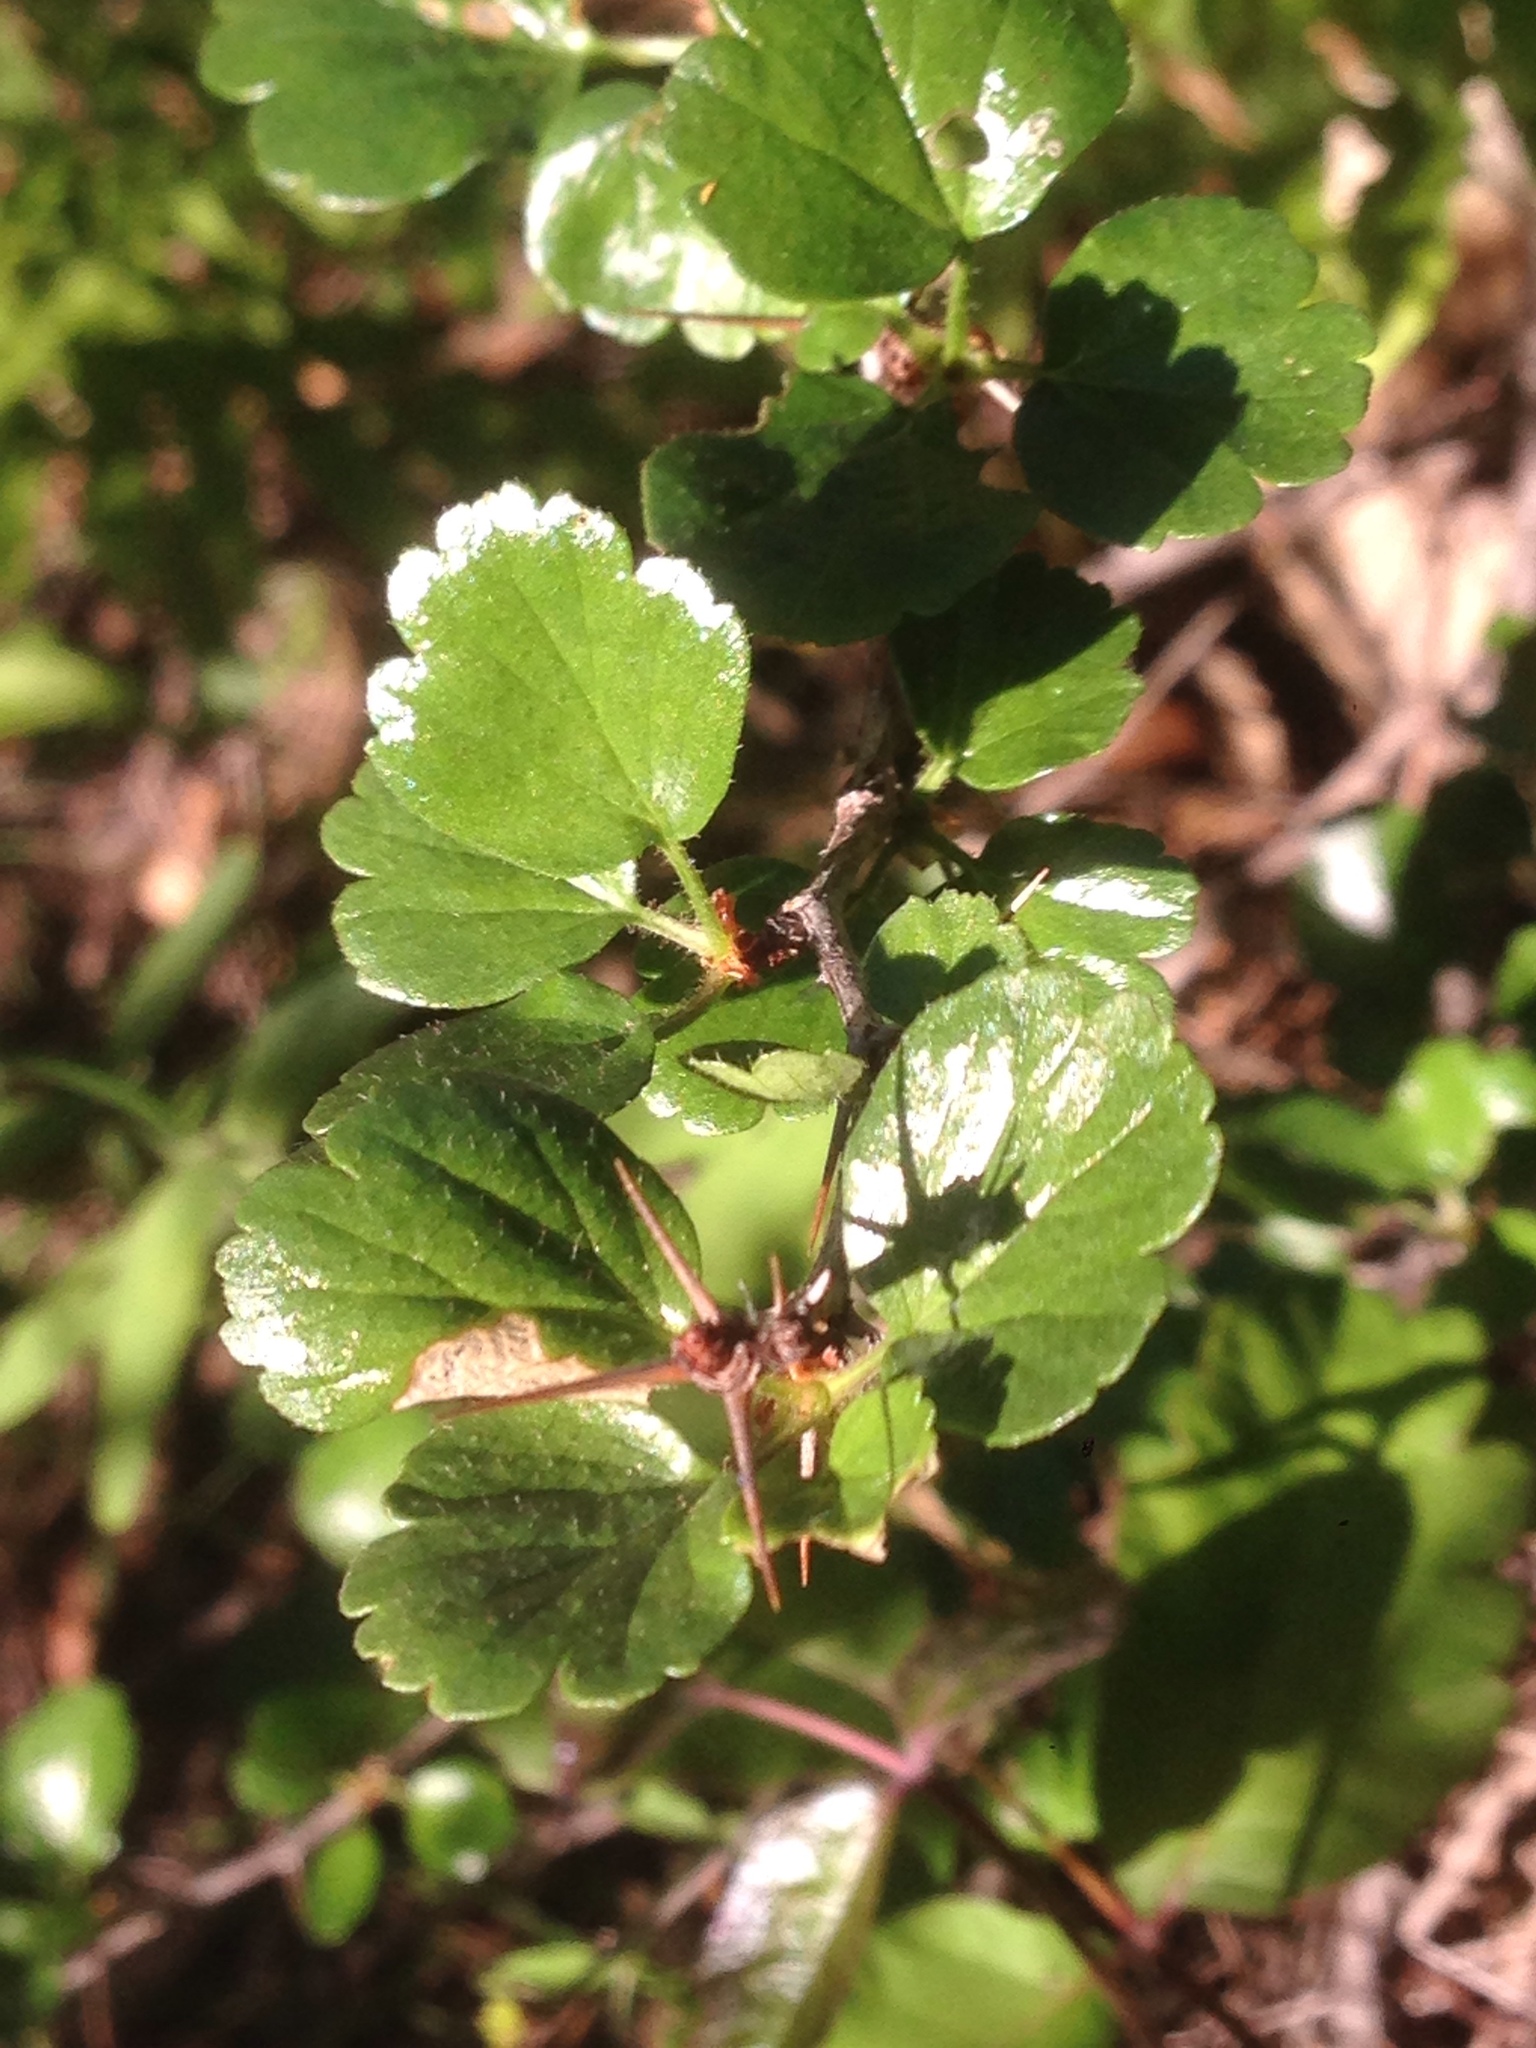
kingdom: Plantae
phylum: Tracheophyta
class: Magnoliopsida
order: Saxifragales
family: Grossulariaceae
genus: Ribes
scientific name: Ribes speciosum
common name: Fuchsia-flower gooseberry
